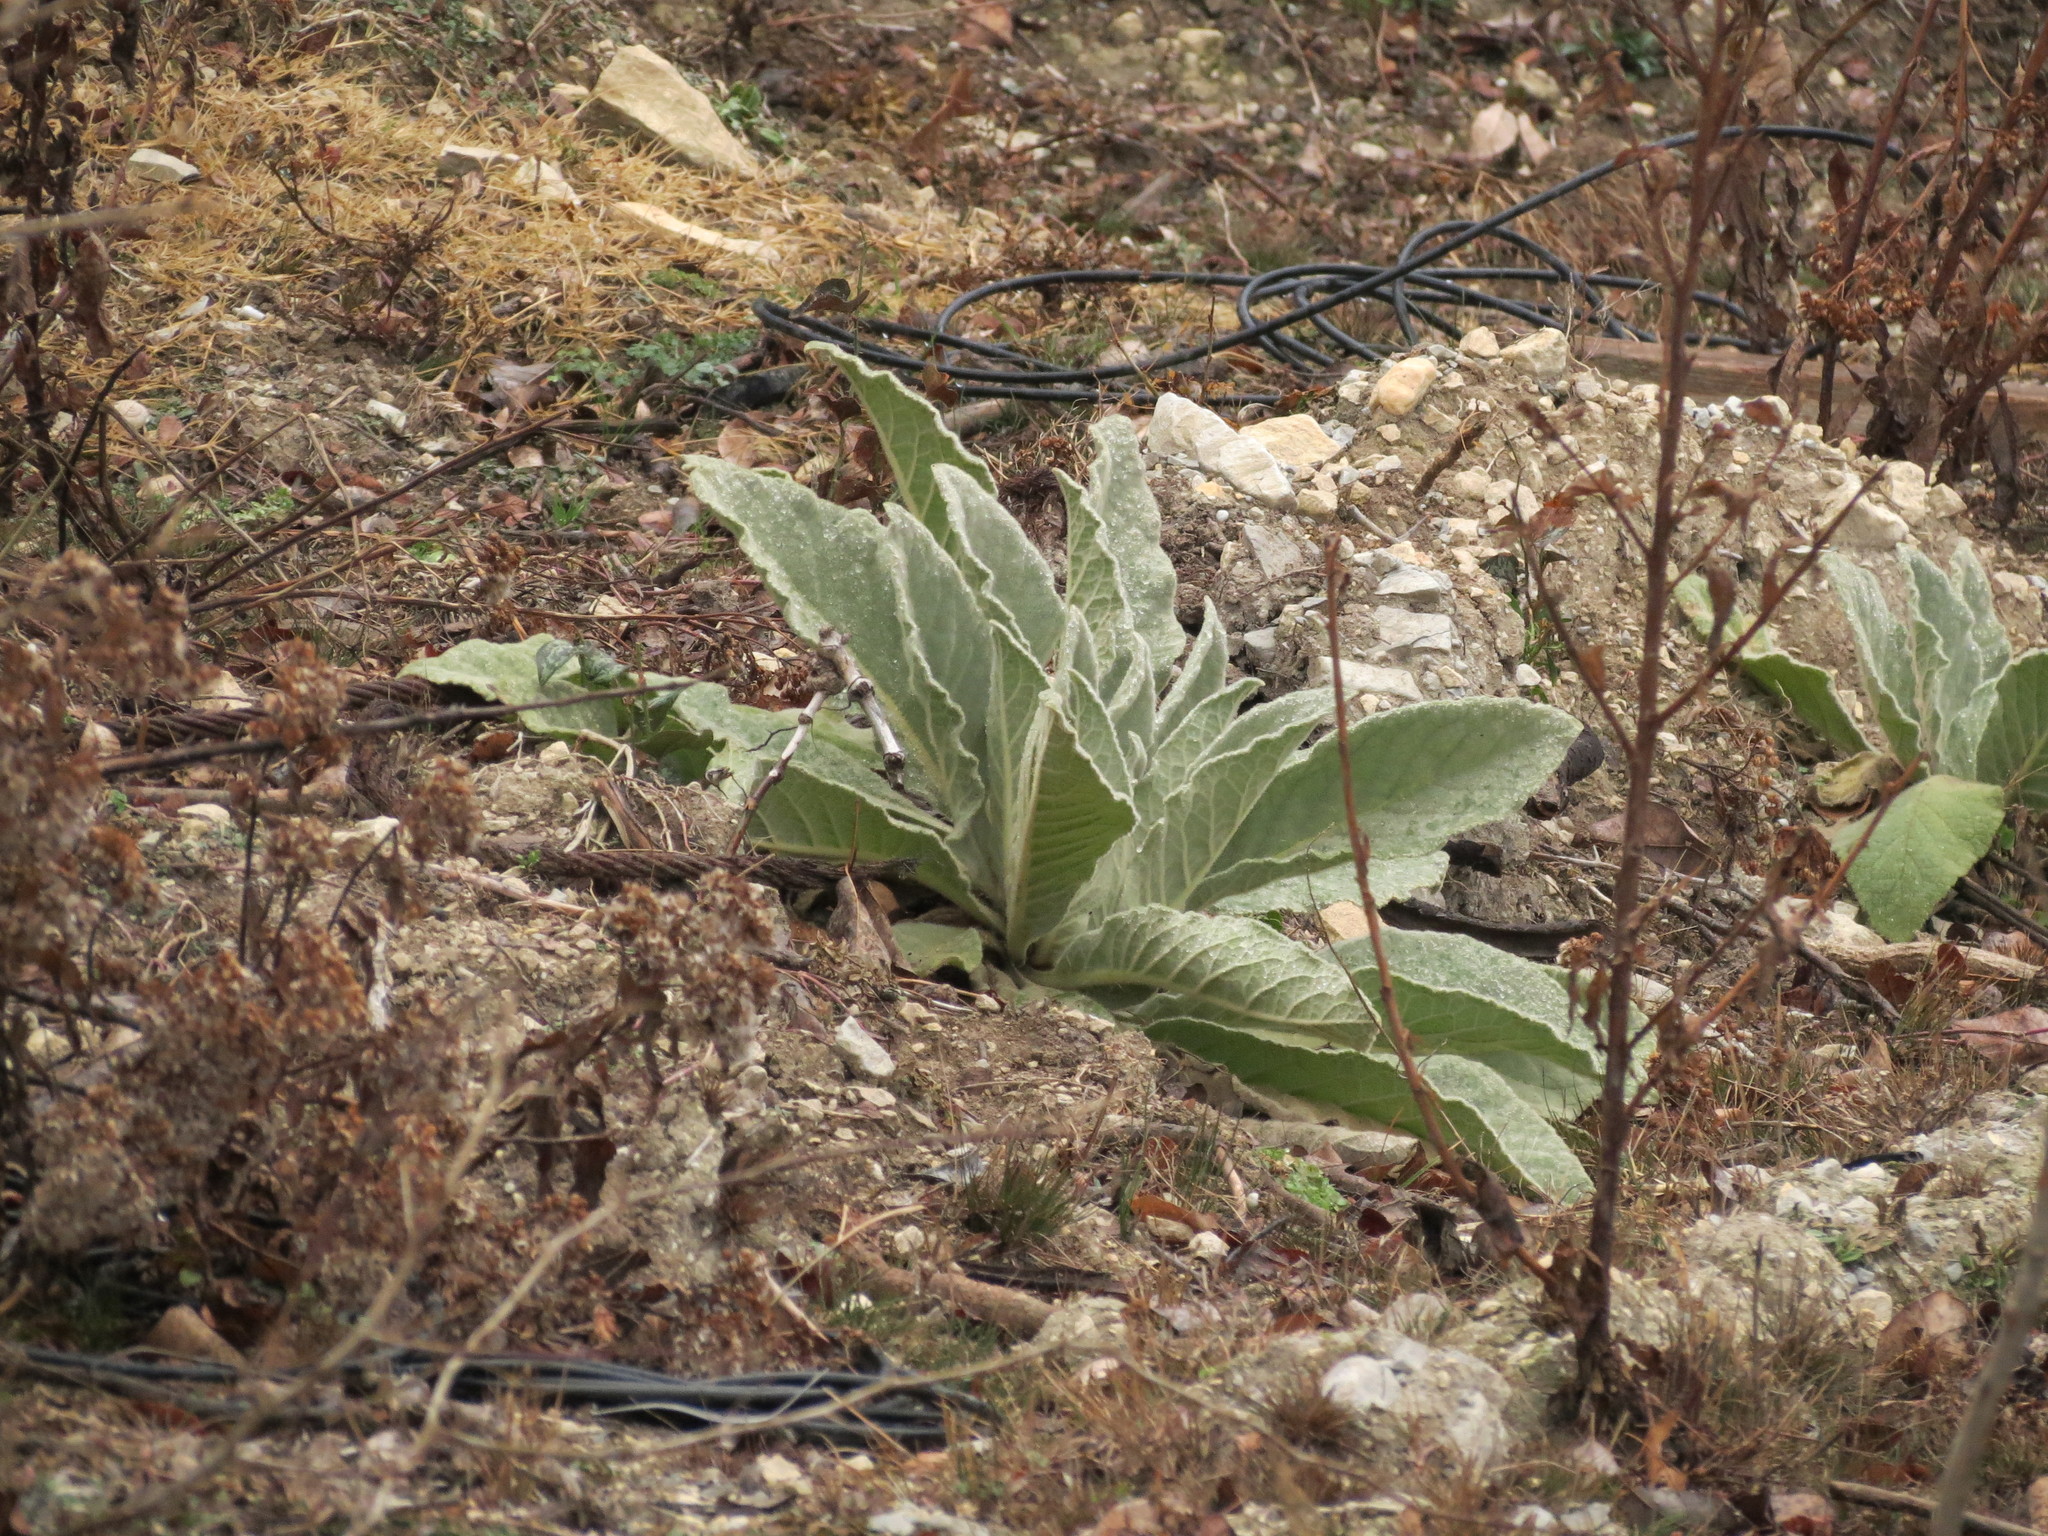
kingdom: Plantae
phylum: Tracheophyta
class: Magnoliopsida
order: Lamiales
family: Scrophulariaceae
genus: Verbascum
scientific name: Verbascum thapsus
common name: Common mullein
